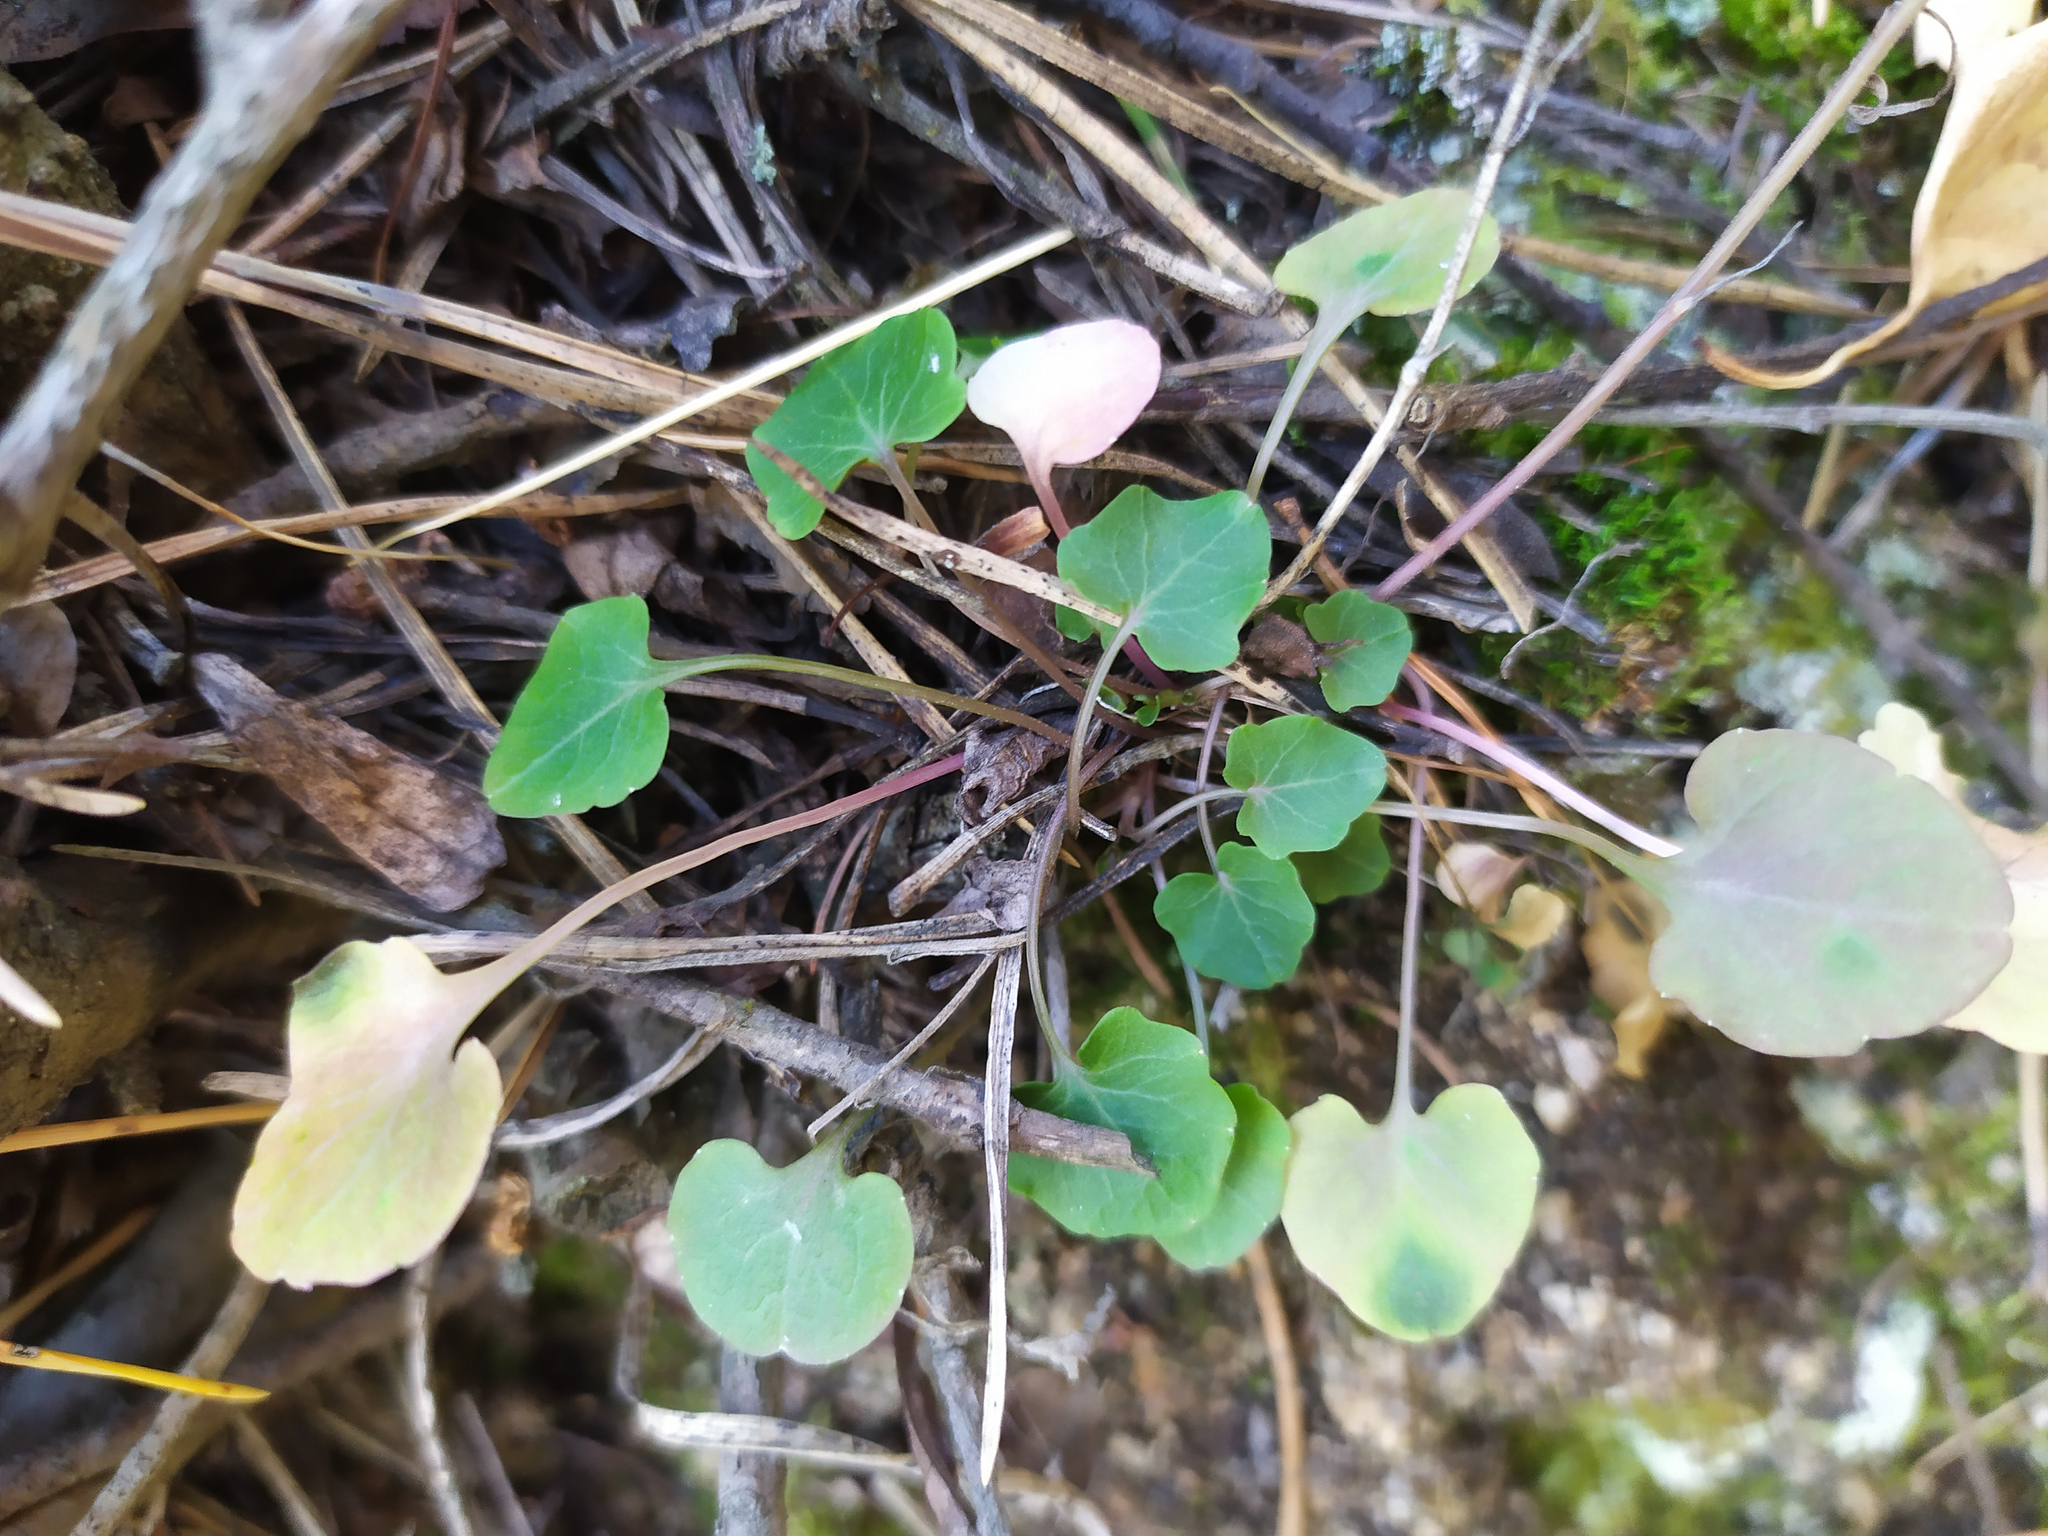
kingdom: Plantae
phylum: Tracheophyta
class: Magnoliopsida
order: Asterales
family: Campanulaceae
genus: Campanula
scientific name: Campanula rotundifolia
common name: Harebell
